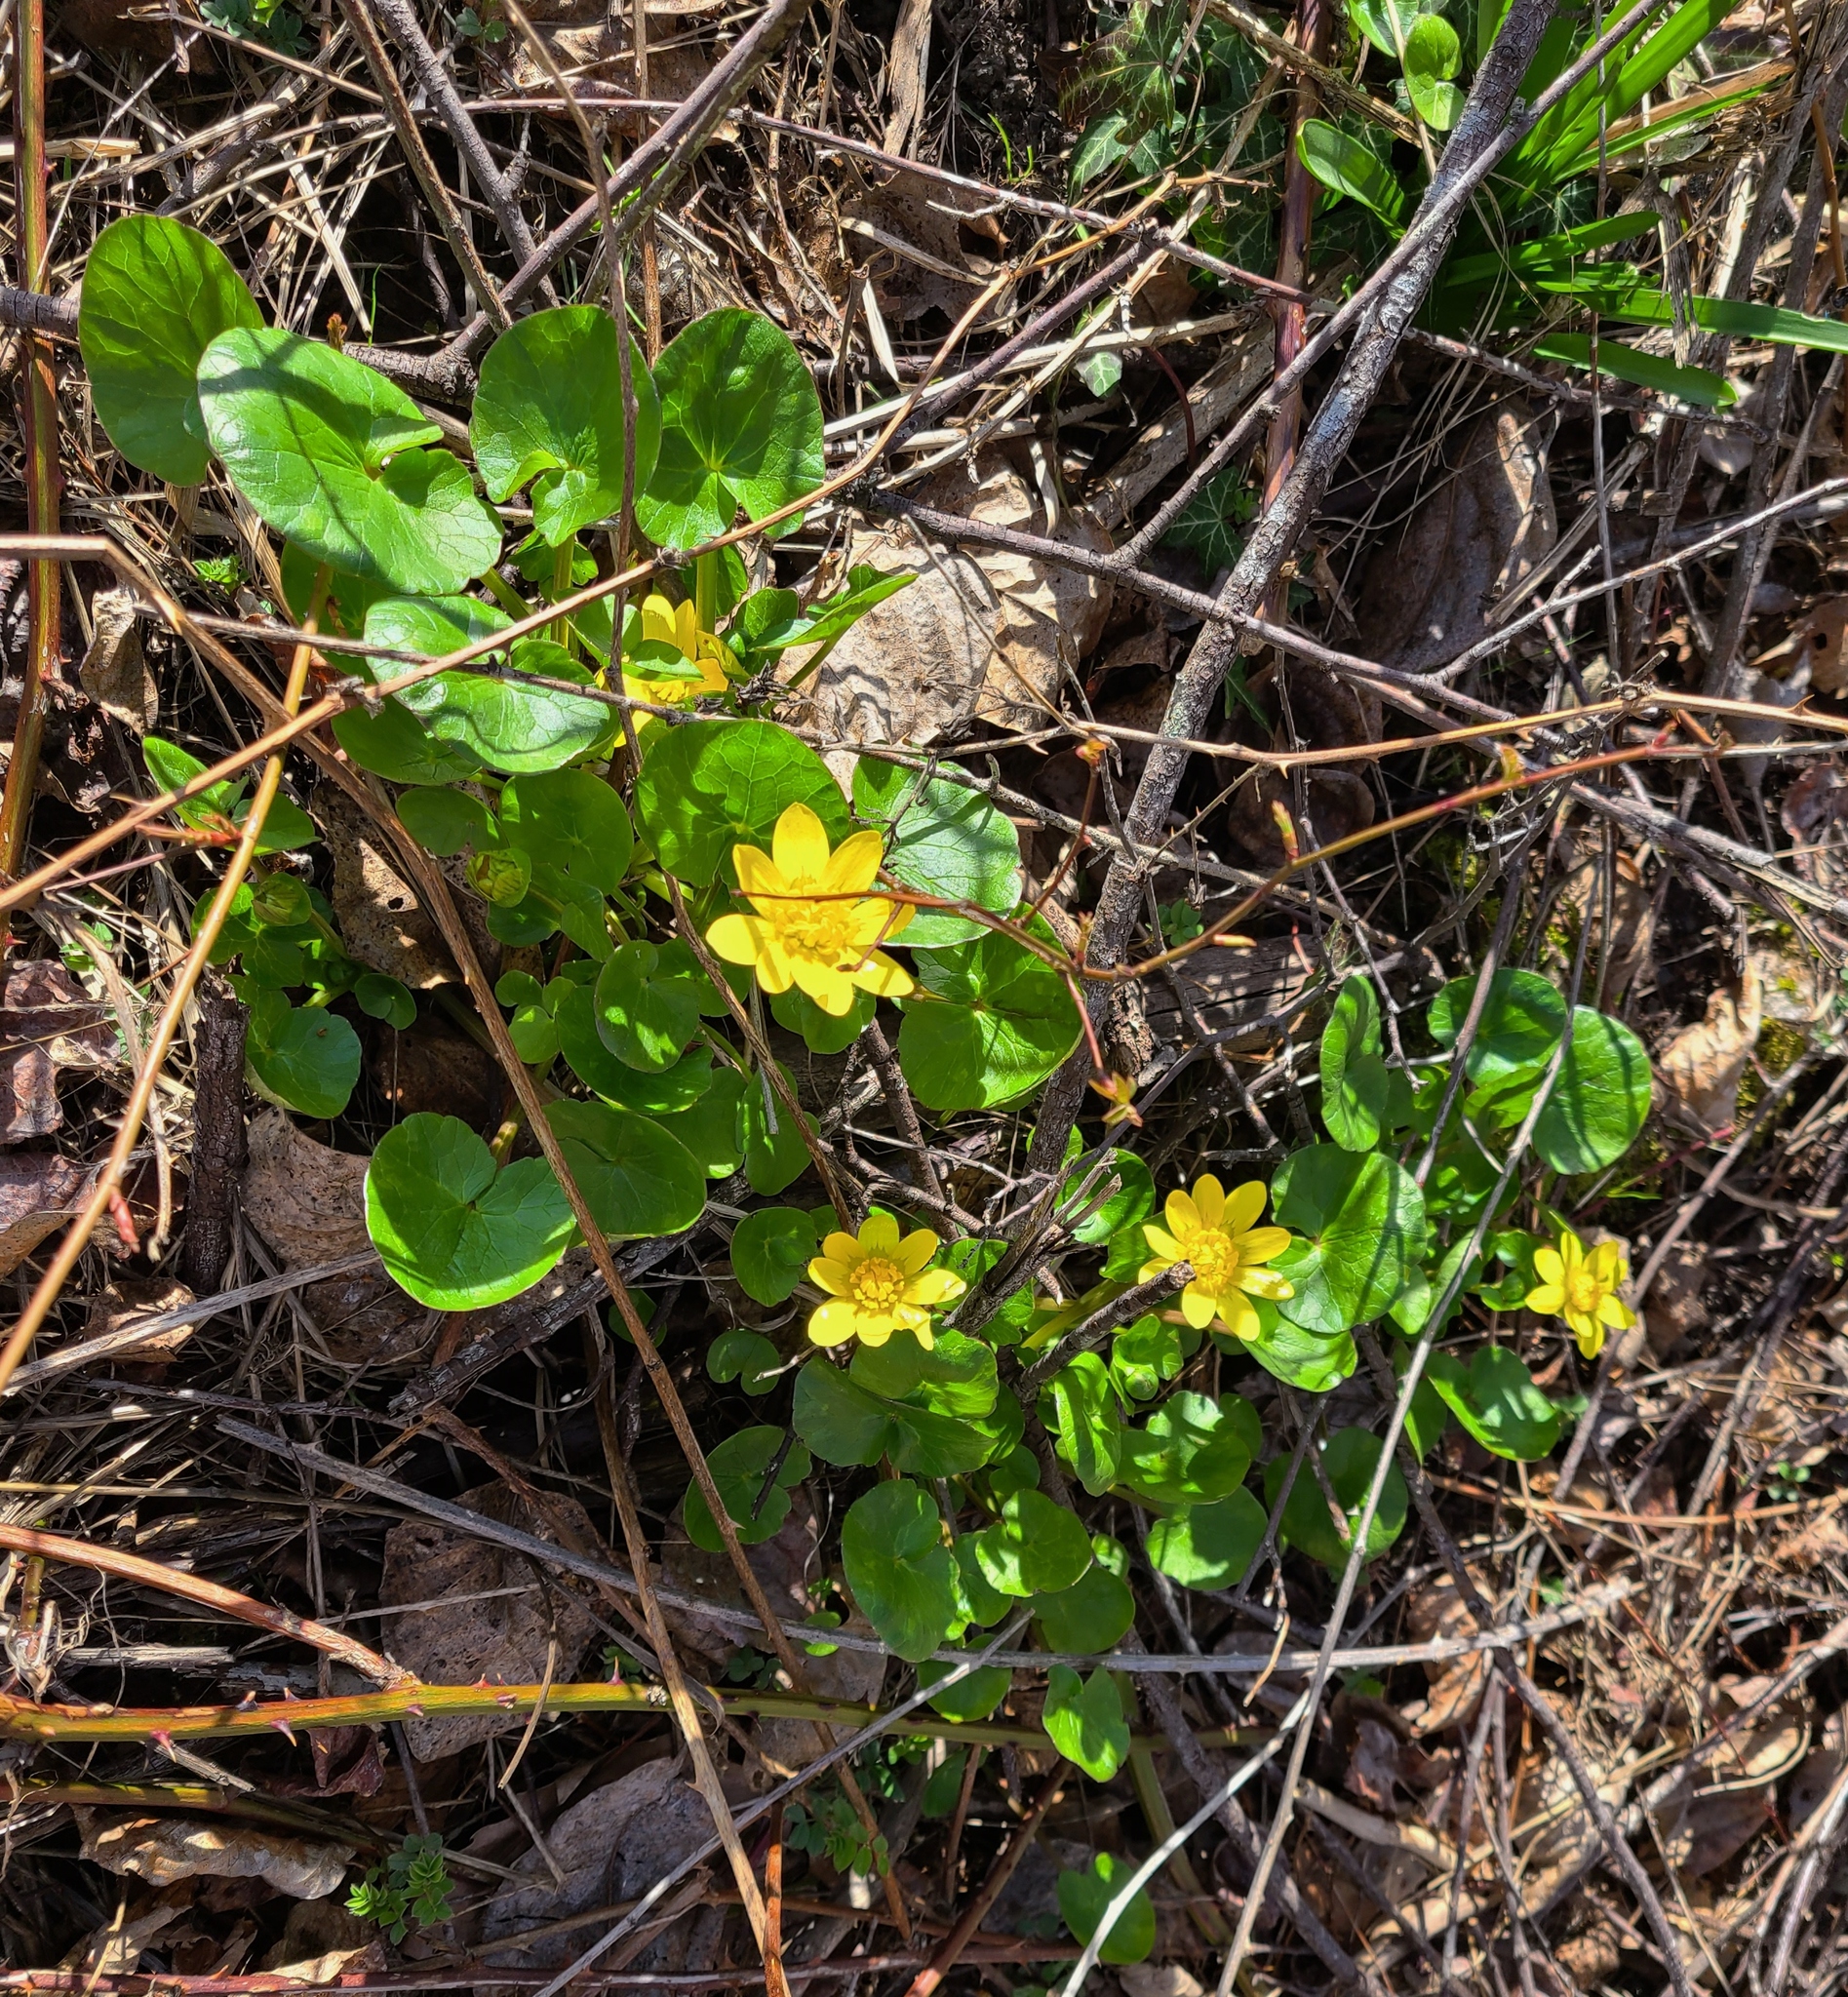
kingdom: Plantae
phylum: Tracheophyta
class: Magnoliopsida
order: Ranunculales
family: Ranunculaceae
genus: Ficaria
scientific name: Ficaria verna
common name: Lesser celandine
